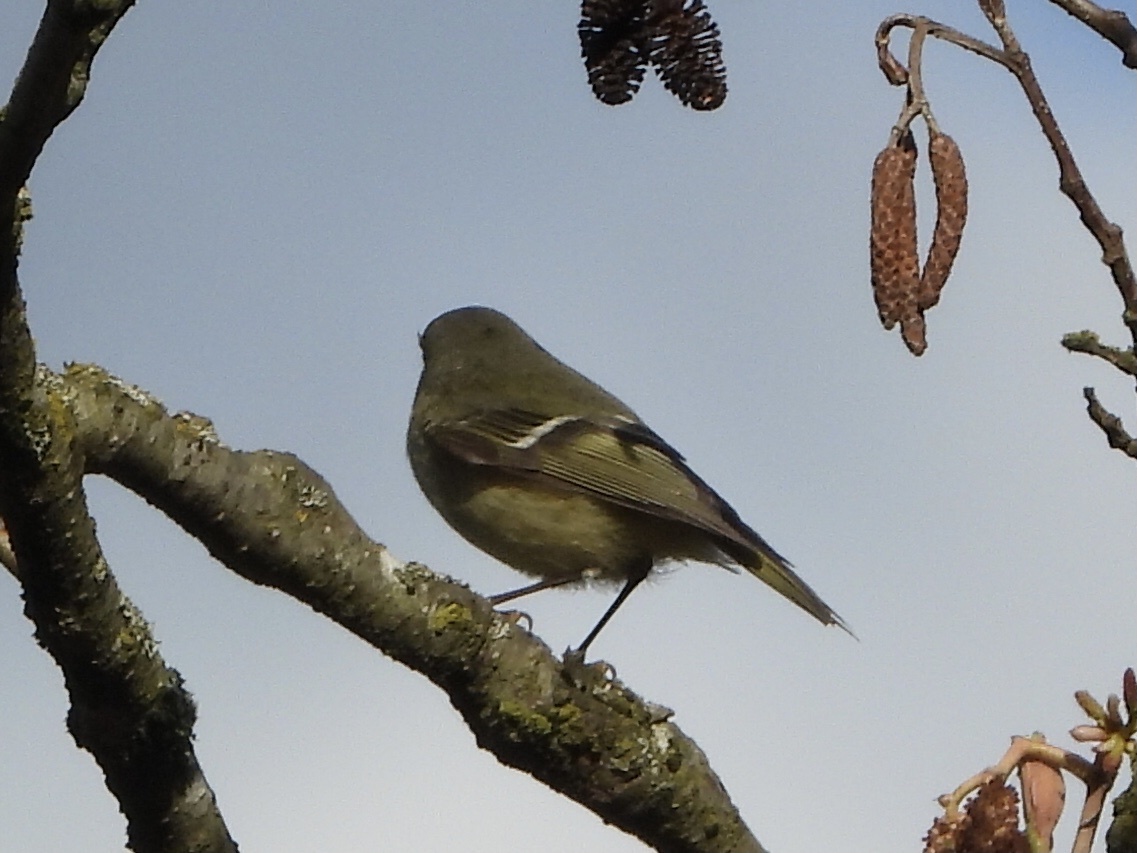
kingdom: Animalia
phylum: Chordata
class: Aves
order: Passeriformes
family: Regulidae
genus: Regulus
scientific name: Regulus calendula
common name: Ruby-crowned kinglet
